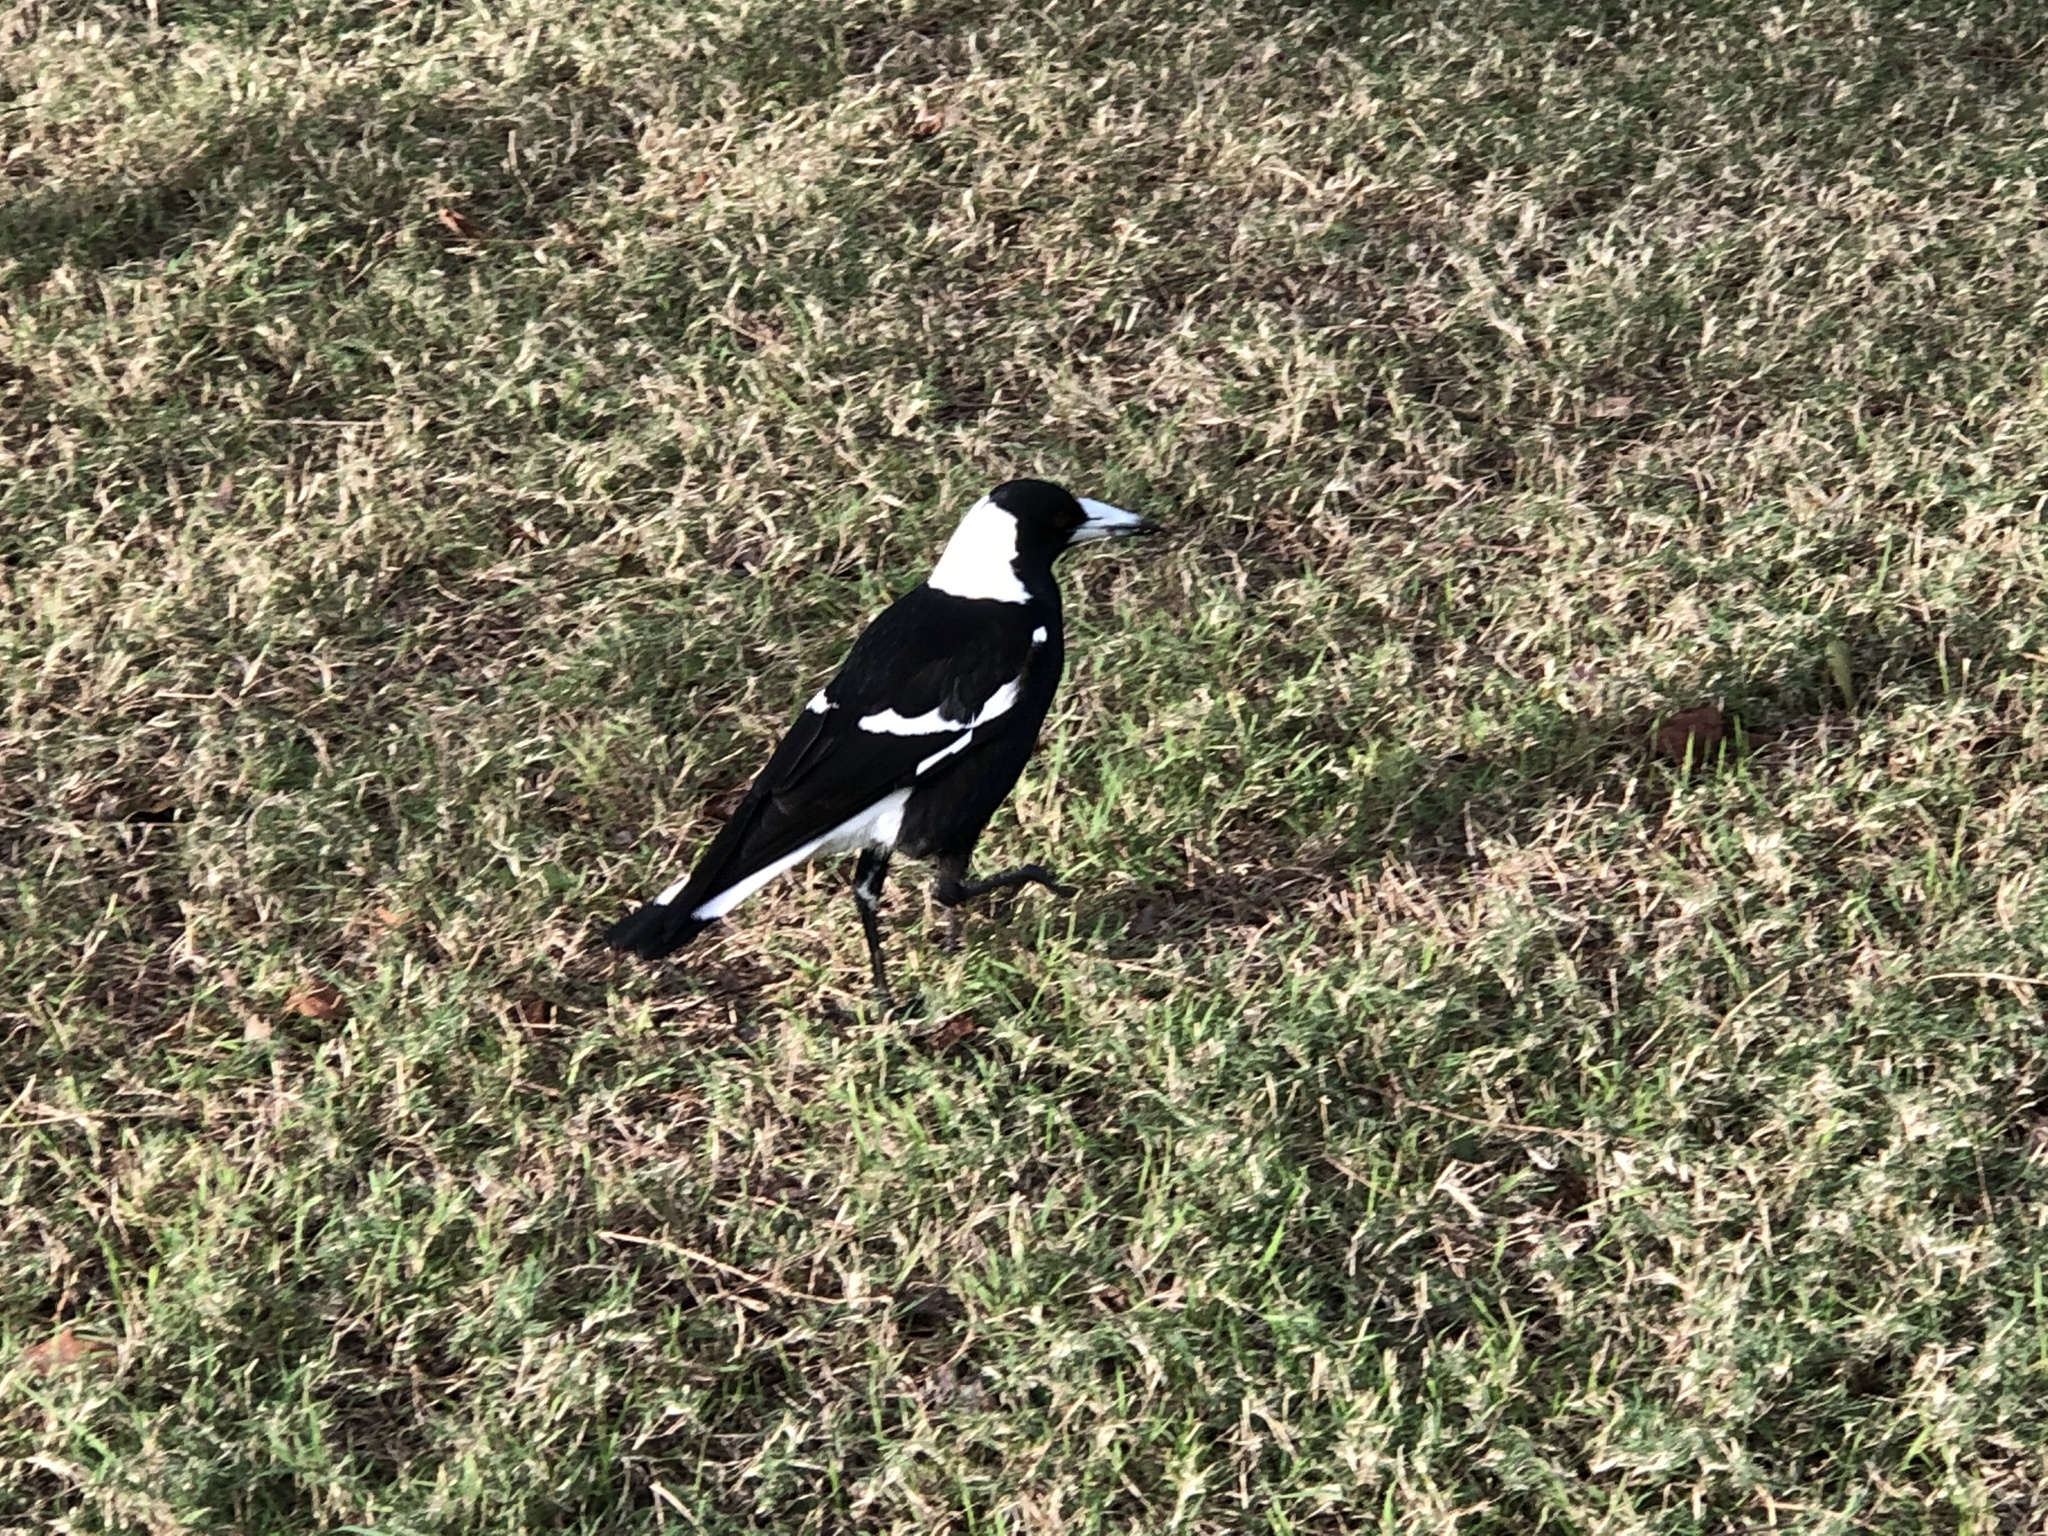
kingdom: Animalia
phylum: Chordata
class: Aves
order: Passeriformes
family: Cracticidae
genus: Gymnorhina
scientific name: Gymnorhina tibicen
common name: Australian magpie
